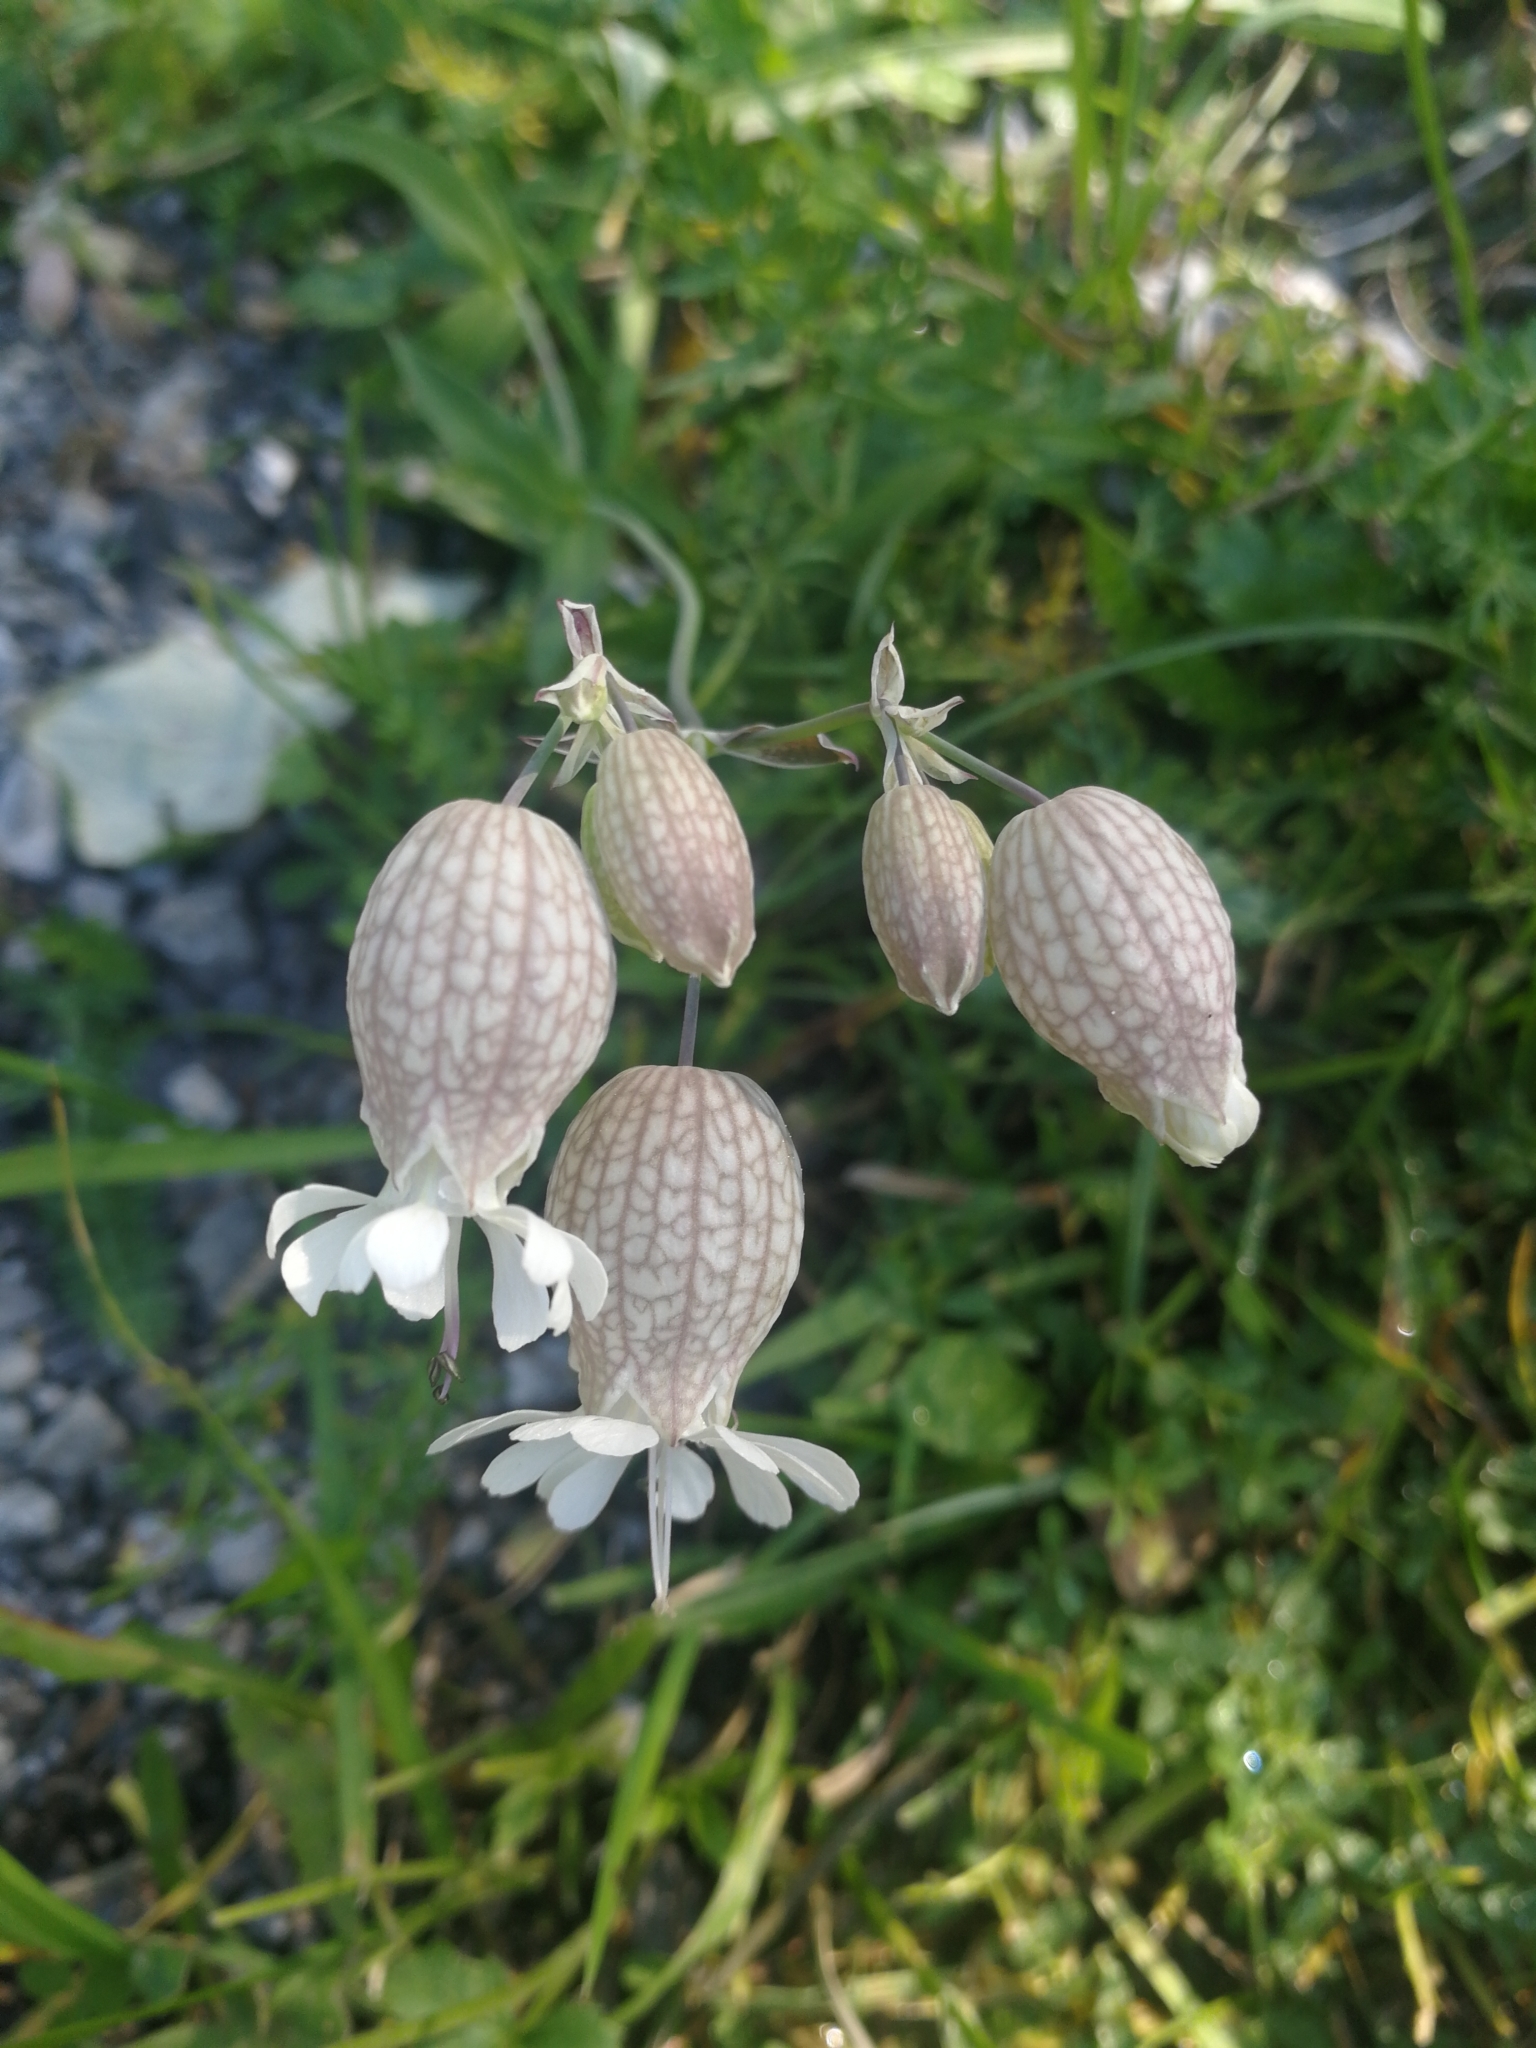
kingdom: Plantae
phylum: Tracheophyta
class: Magnoliopsida
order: Caryophyllales
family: Caryophyllaceae
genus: Silene
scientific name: Silene vulgaris
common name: Bladder campion
